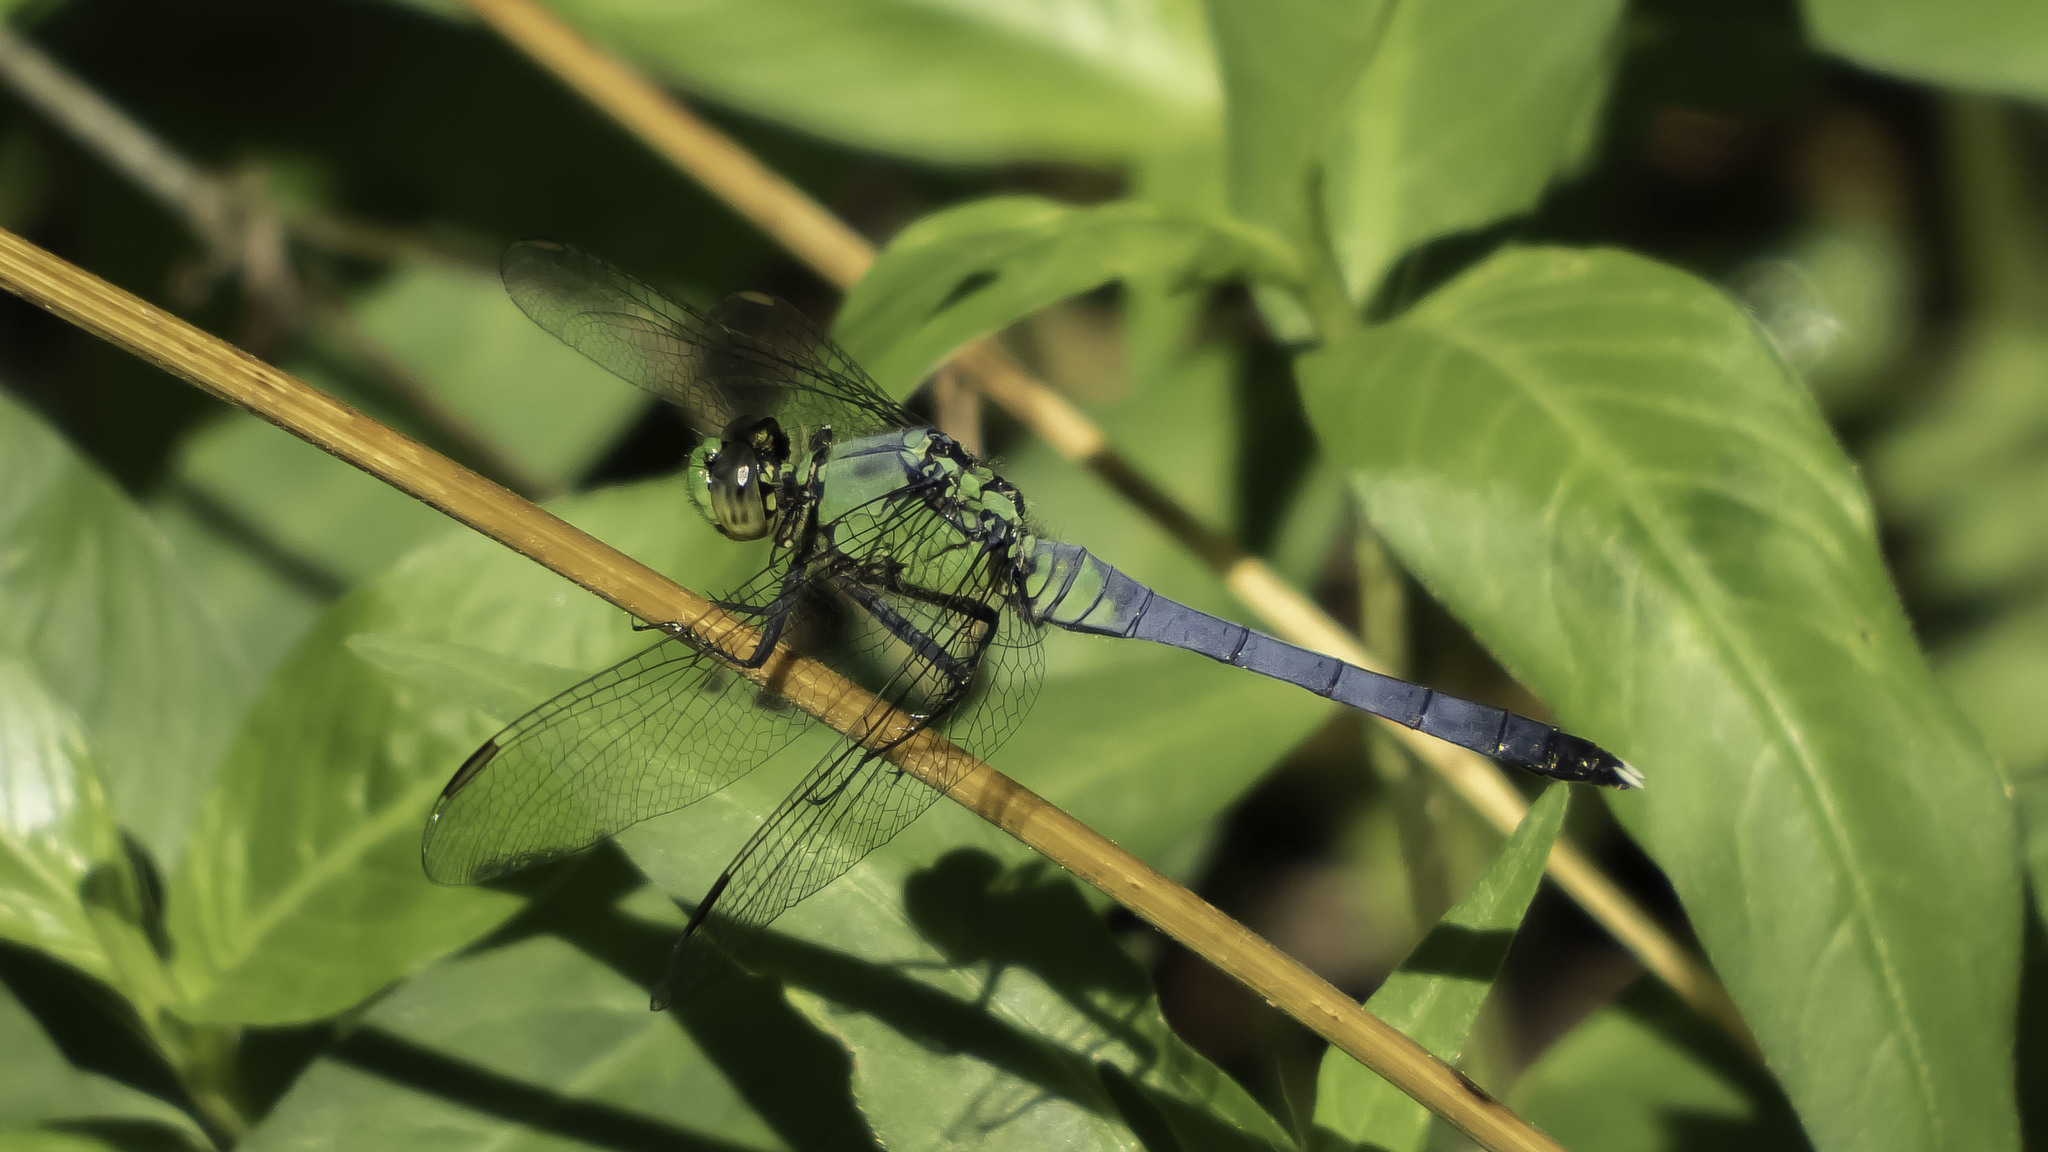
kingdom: Animalia
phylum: Arthropoda
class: Insecta
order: Odonata
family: Libellulidae
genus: Erythemis
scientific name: Erythemis simplicicollis
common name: Eastern pondhawk
